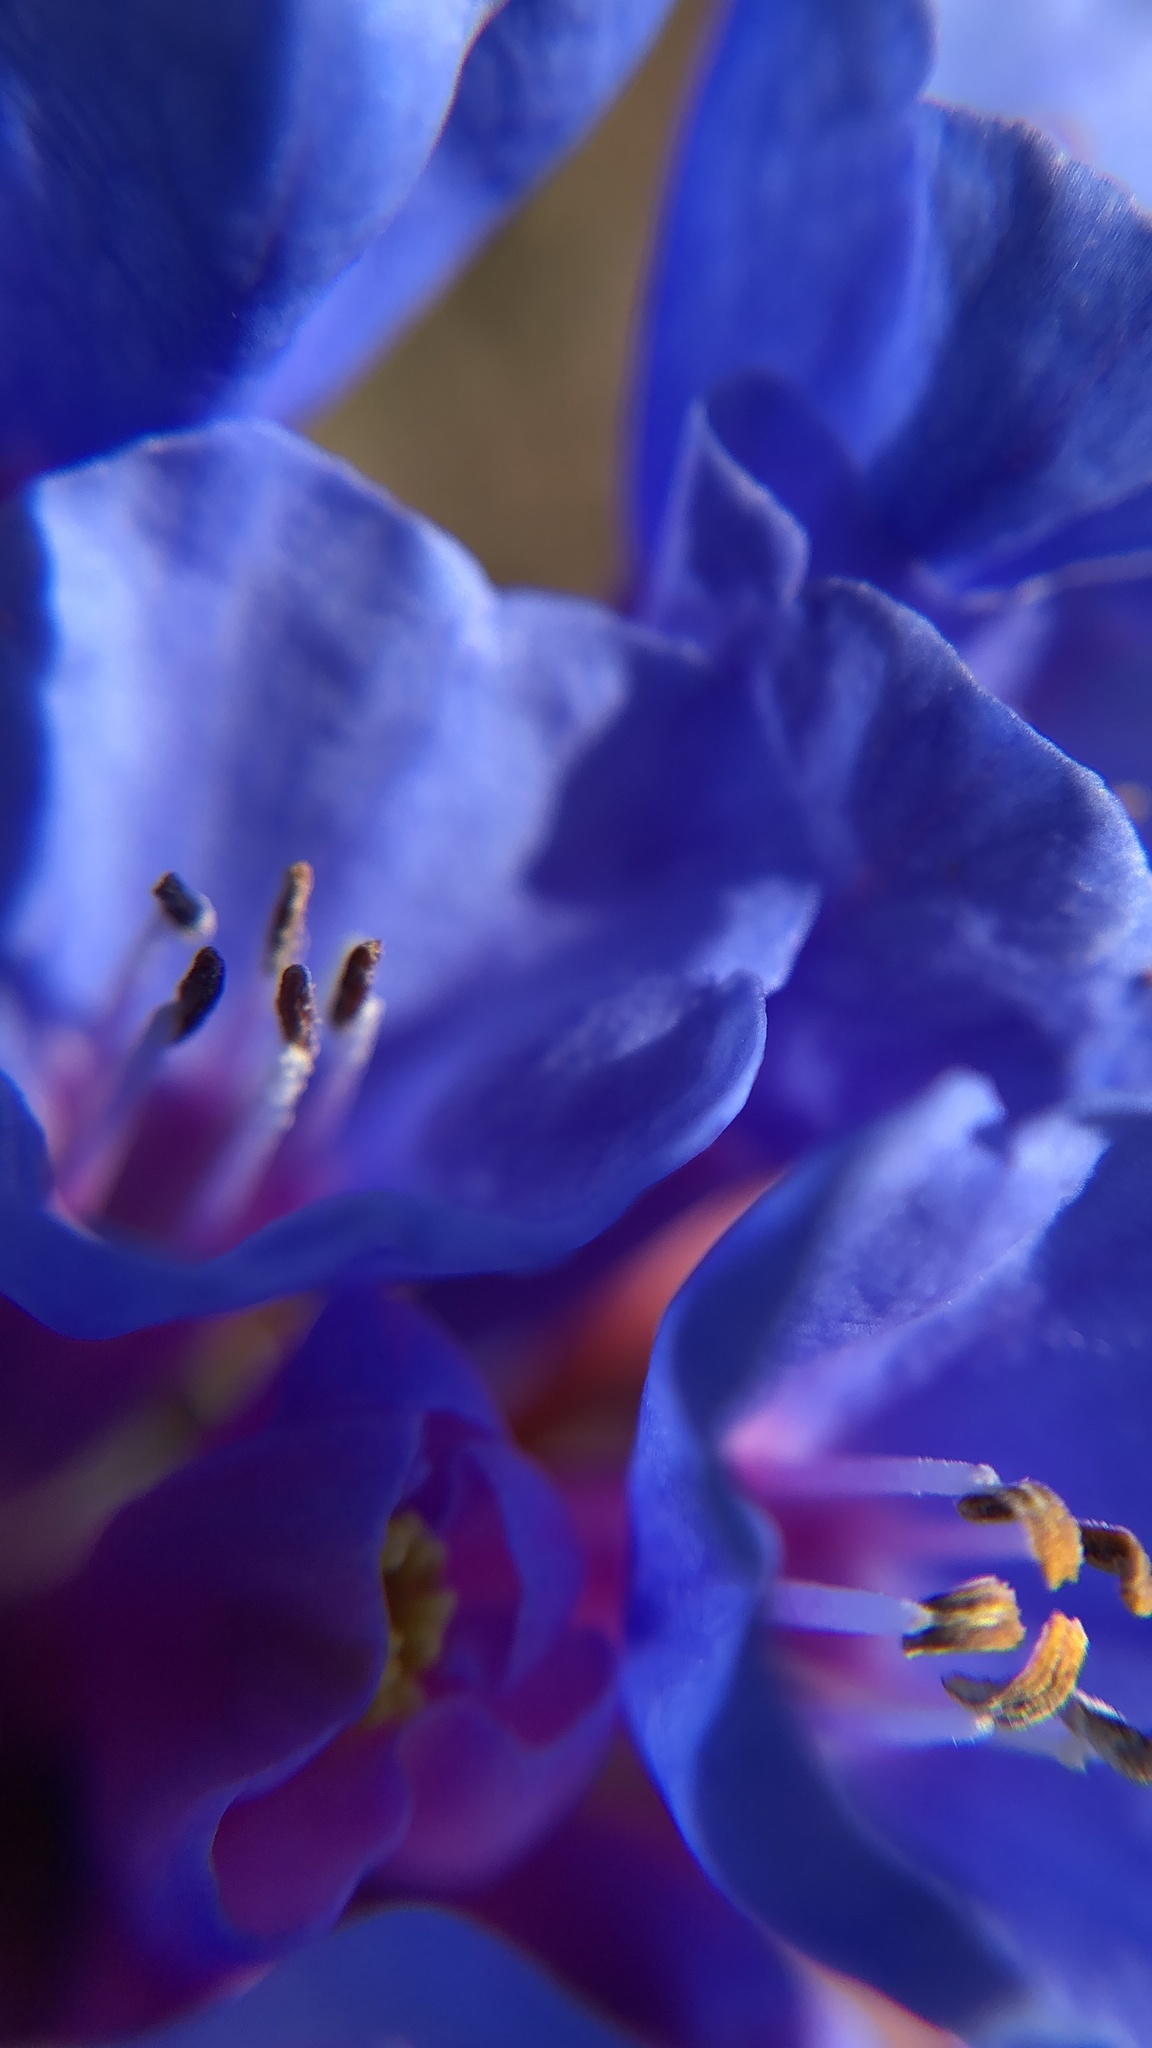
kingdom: Plantae
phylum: Tracheophyta
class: Magnoliopsida
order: Boraginales
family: Boraginaceae
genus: Mertensia
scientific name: Mertensia virginica
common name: Virginia bluebells
